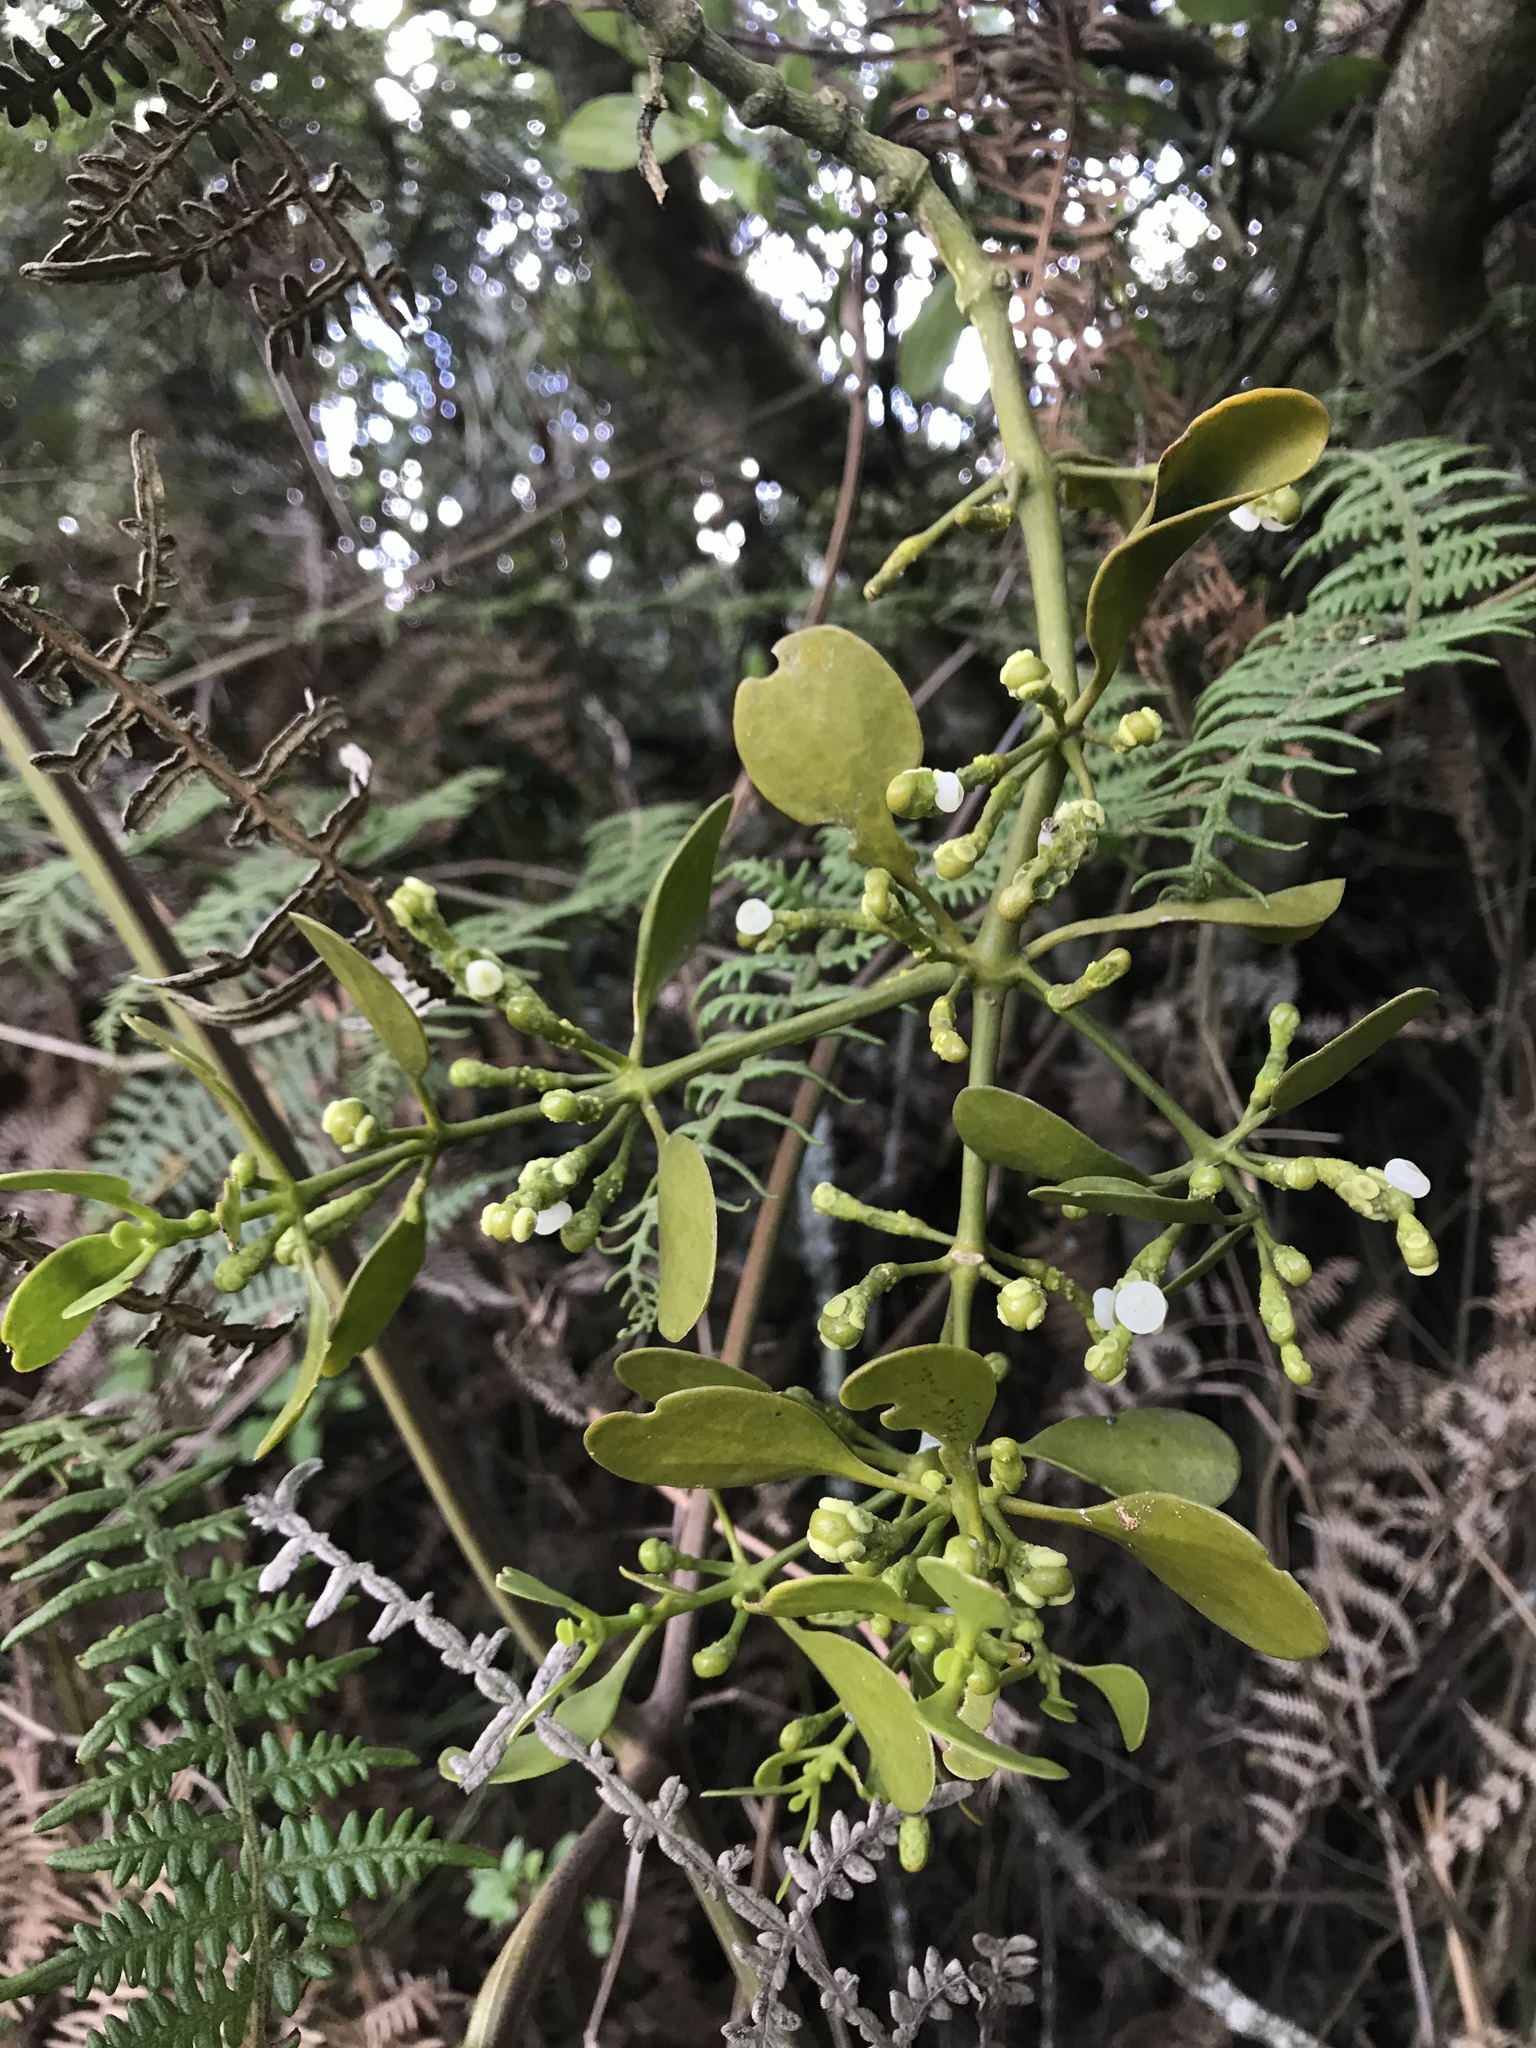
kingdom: Plantae
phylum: Tracheophyta
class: Magnoliopsida
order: Santalales
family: Viscaceae
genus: Dendrophthora
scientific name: Dendrophthora clavata
